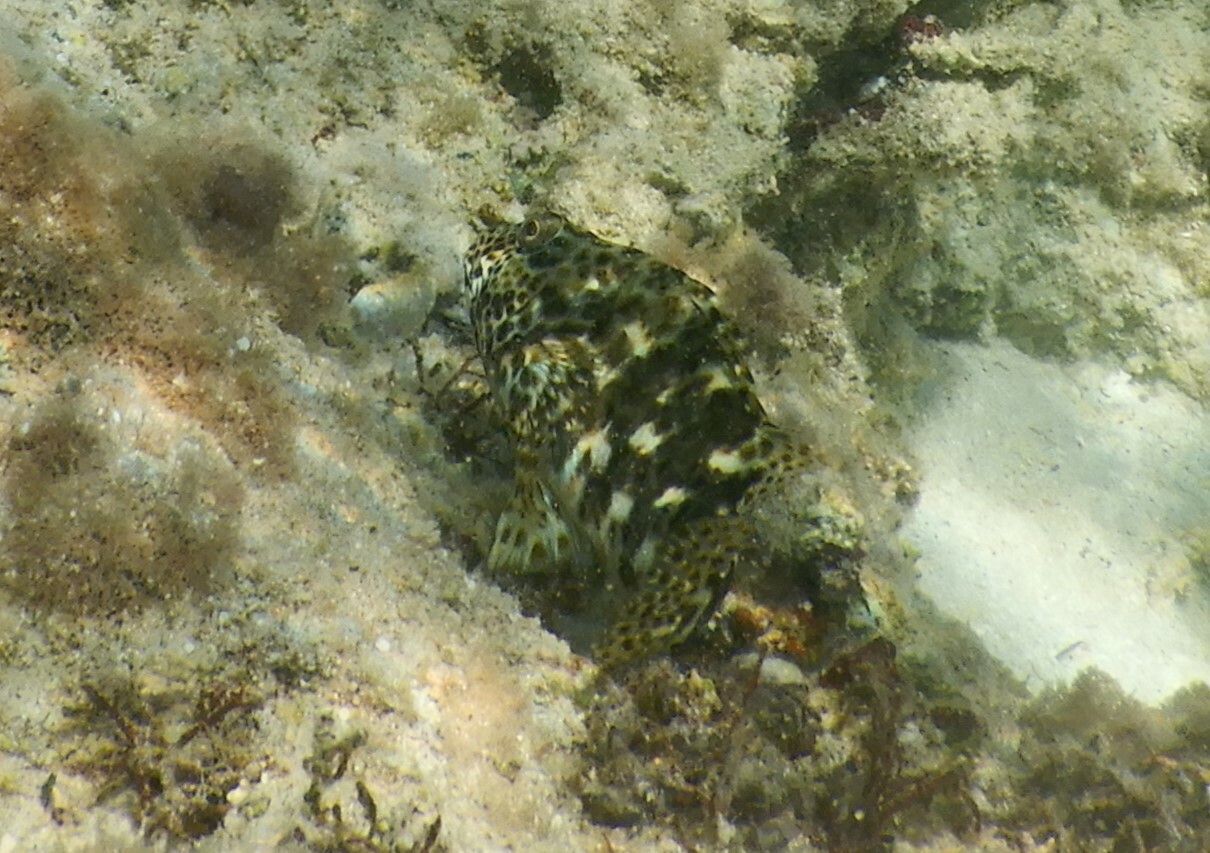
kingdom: Animalia
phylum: Chordata
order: Perciformes
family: Cirrhitidae
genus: Cirrhitus
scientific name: Cirrhitus pinnulatus
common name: Stocky hawkfish
